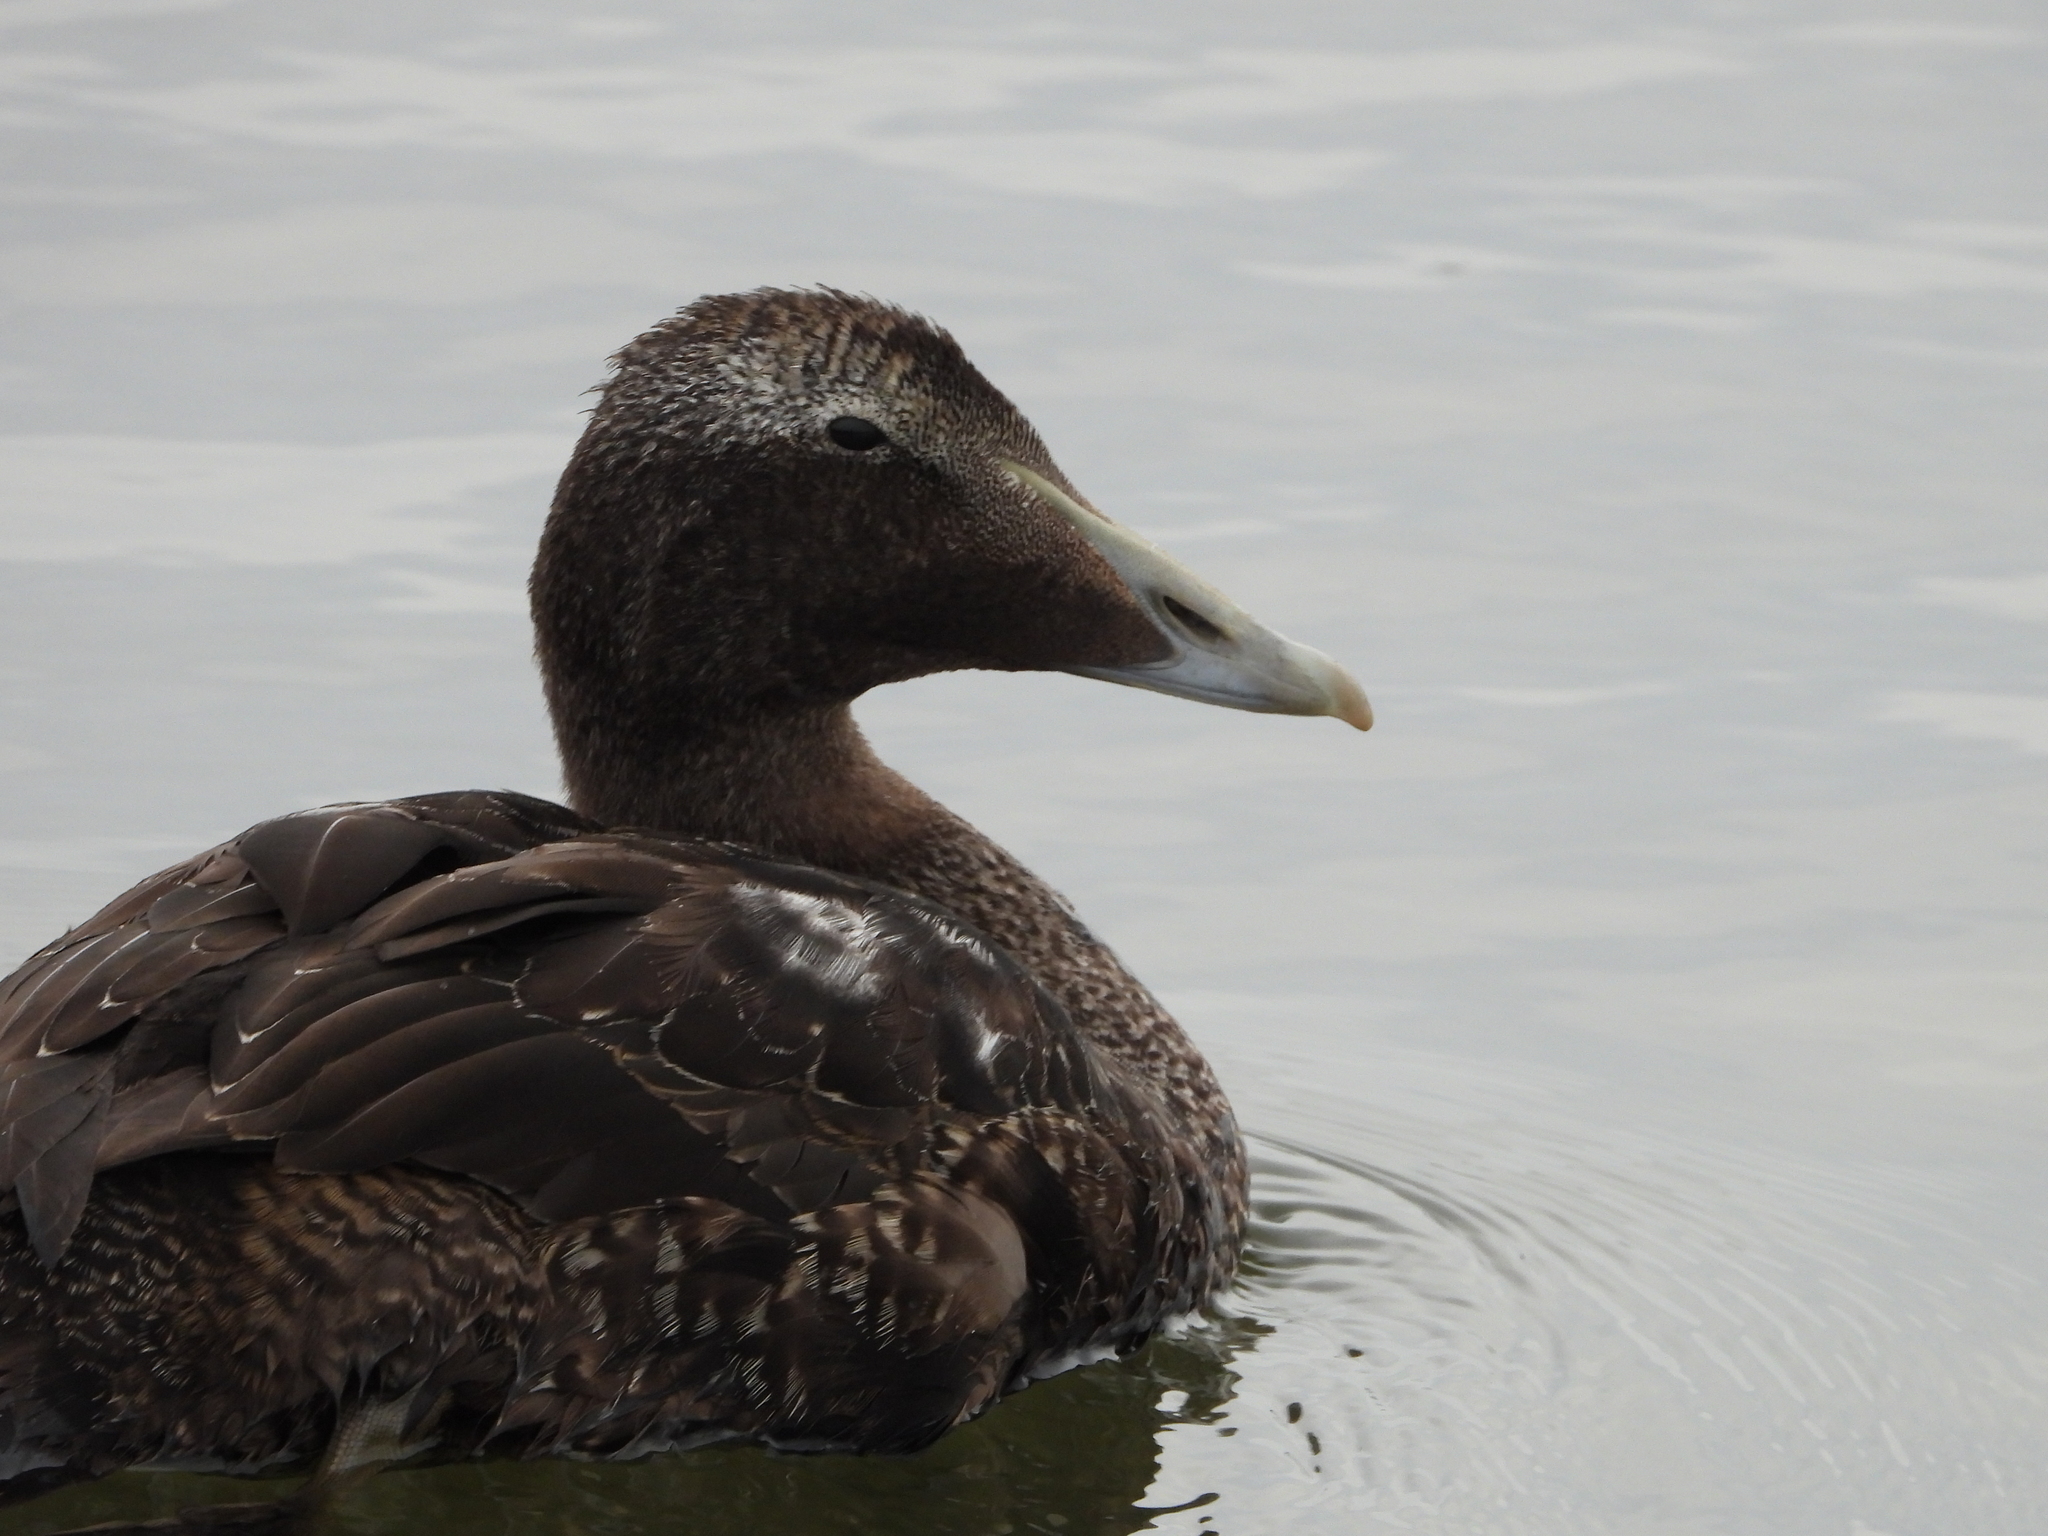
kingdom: Animalia
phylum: Chordata
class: Aves
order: Anseriformes
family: Anatidae
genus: Somateria
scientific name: Somateria mollissima
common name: Common eider
